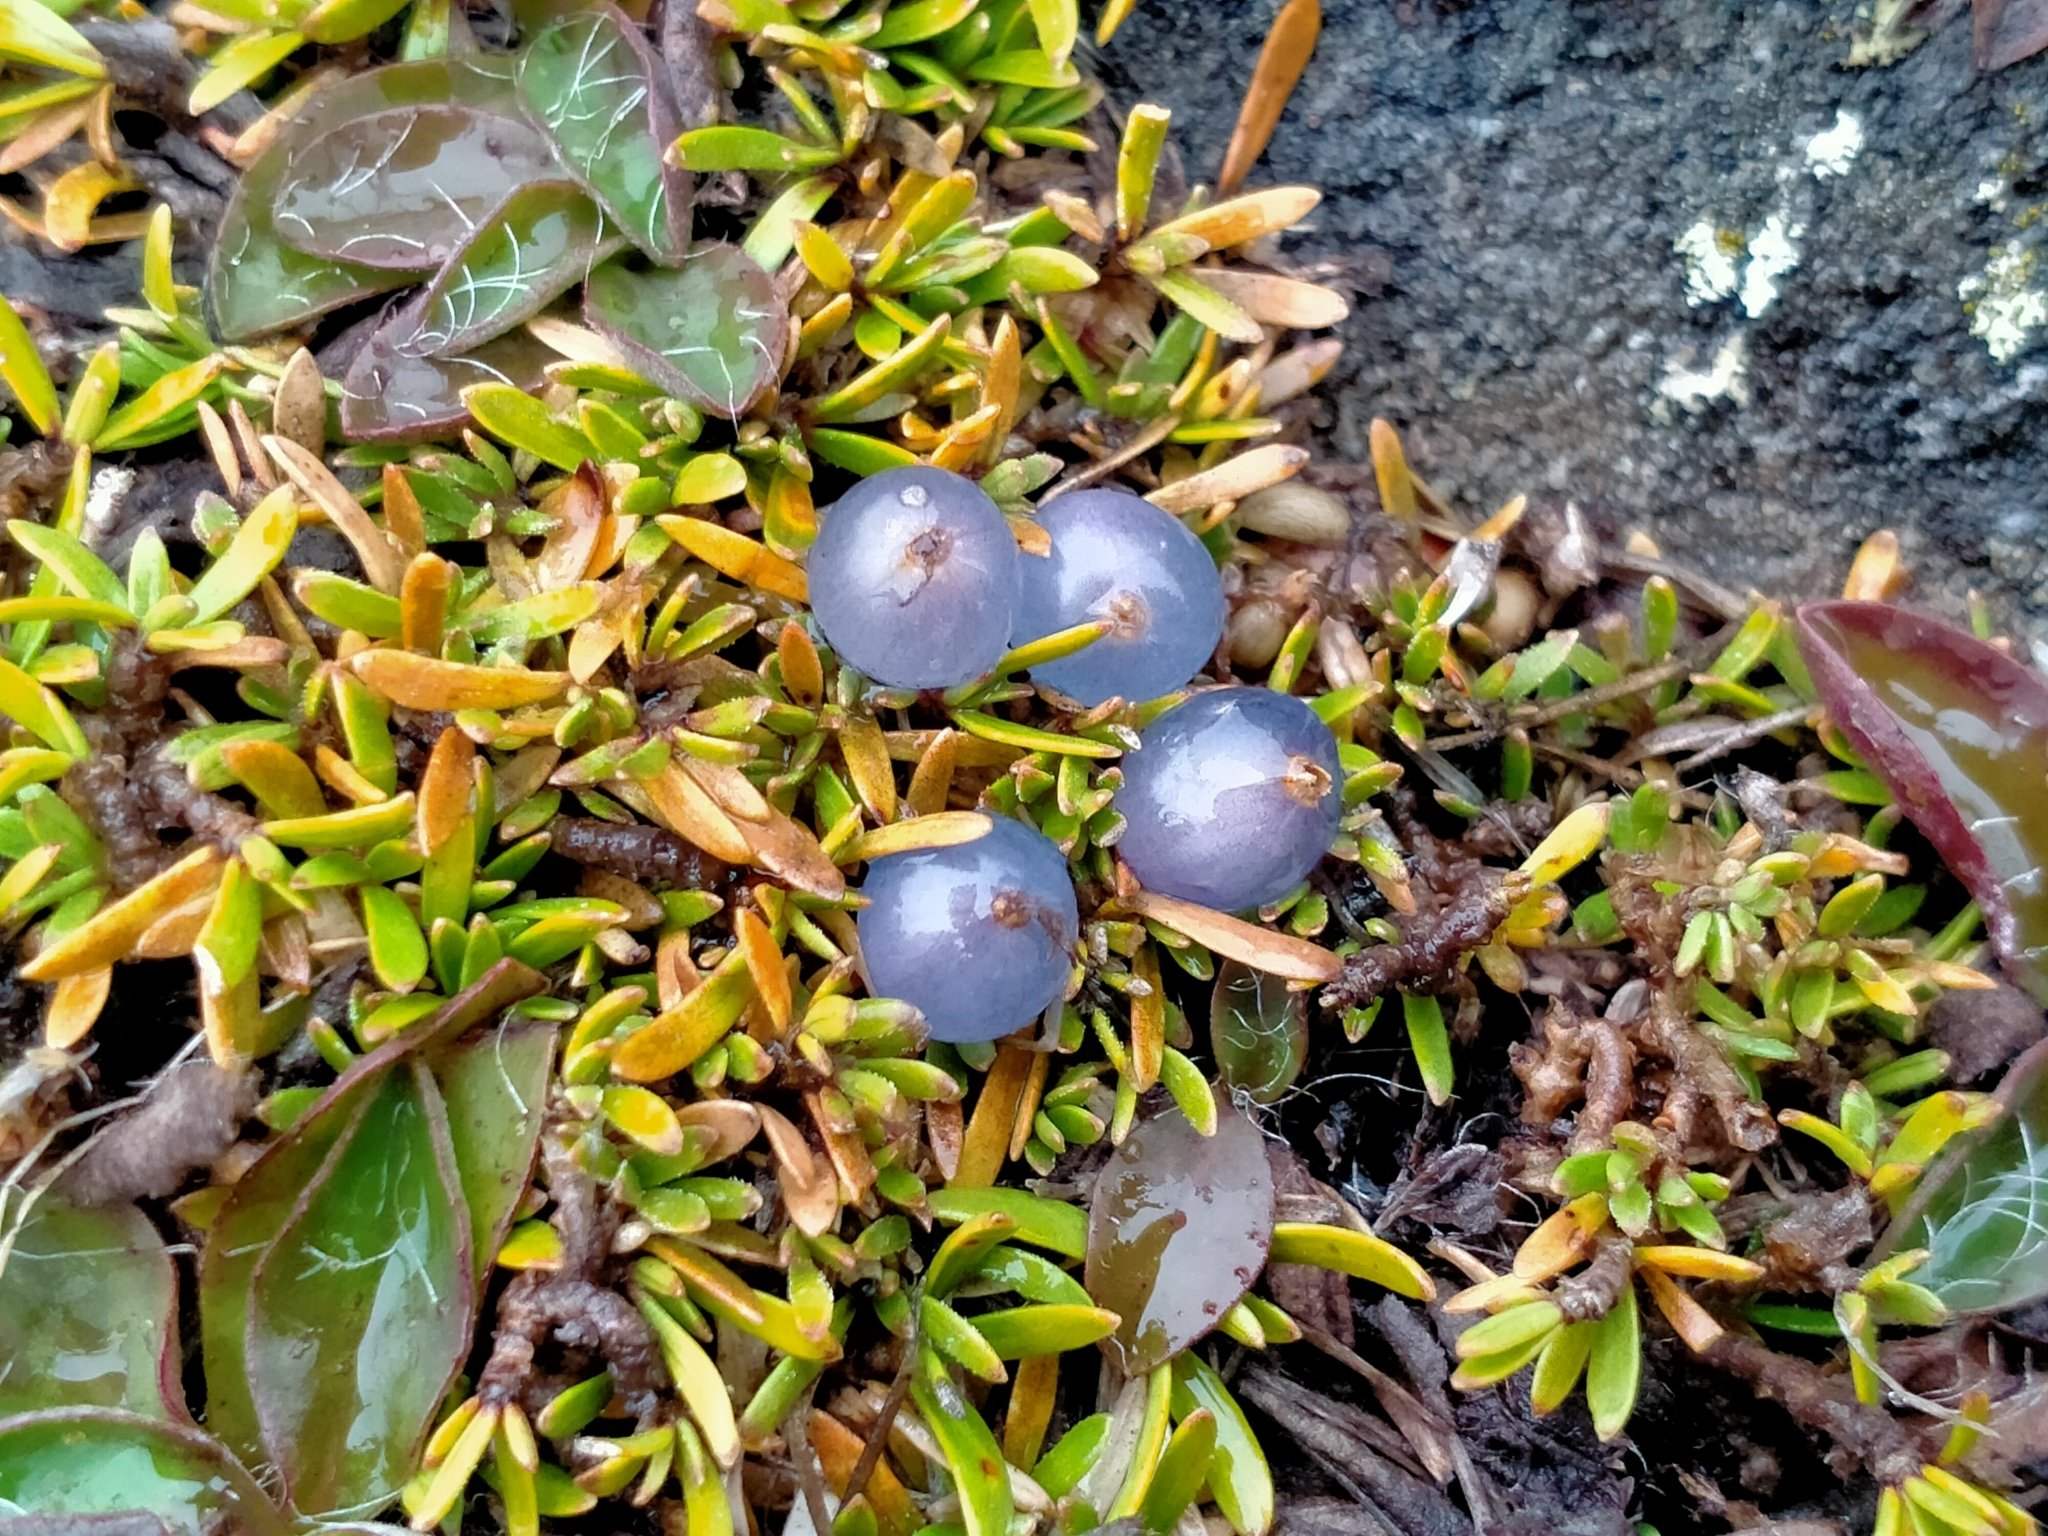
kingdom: Plantae
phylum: Tracheophyta
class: Magnoliopsida
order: Gentianales
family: Rubiaceae
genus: Coprosma
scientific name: Coprosma petriei
